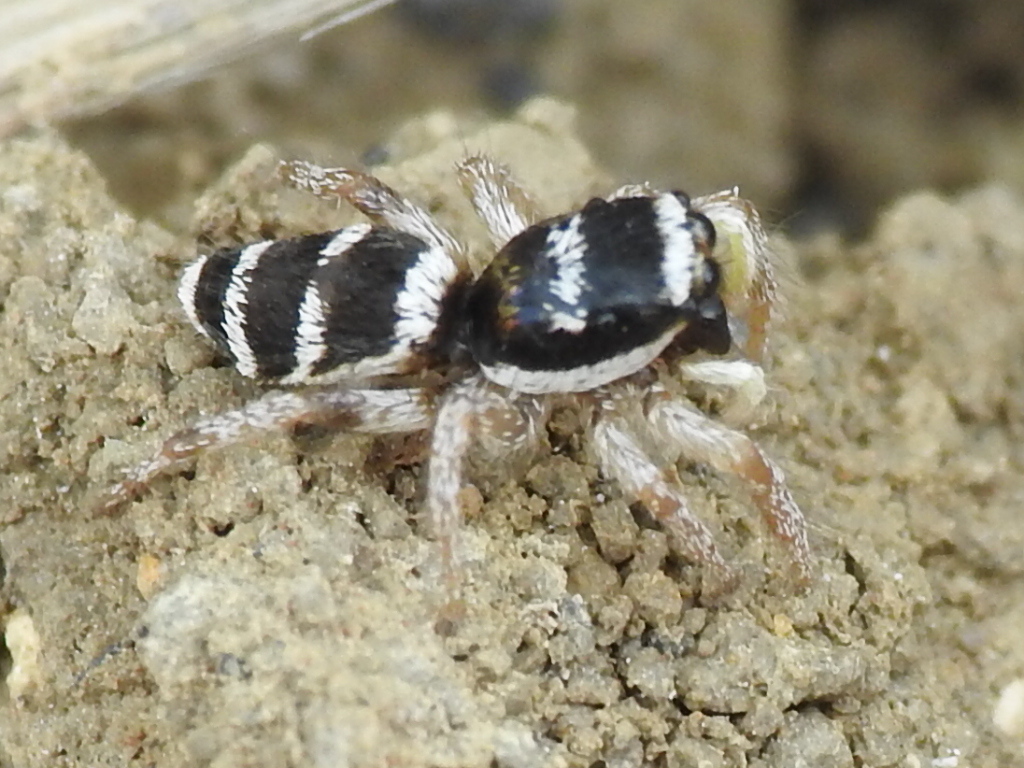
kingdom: Animalia
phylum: Arthropoda
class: Arachnida
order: Araneae
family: Salticidae
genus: Salticus
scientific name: Salticus austinensis
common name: Jumping spiders
